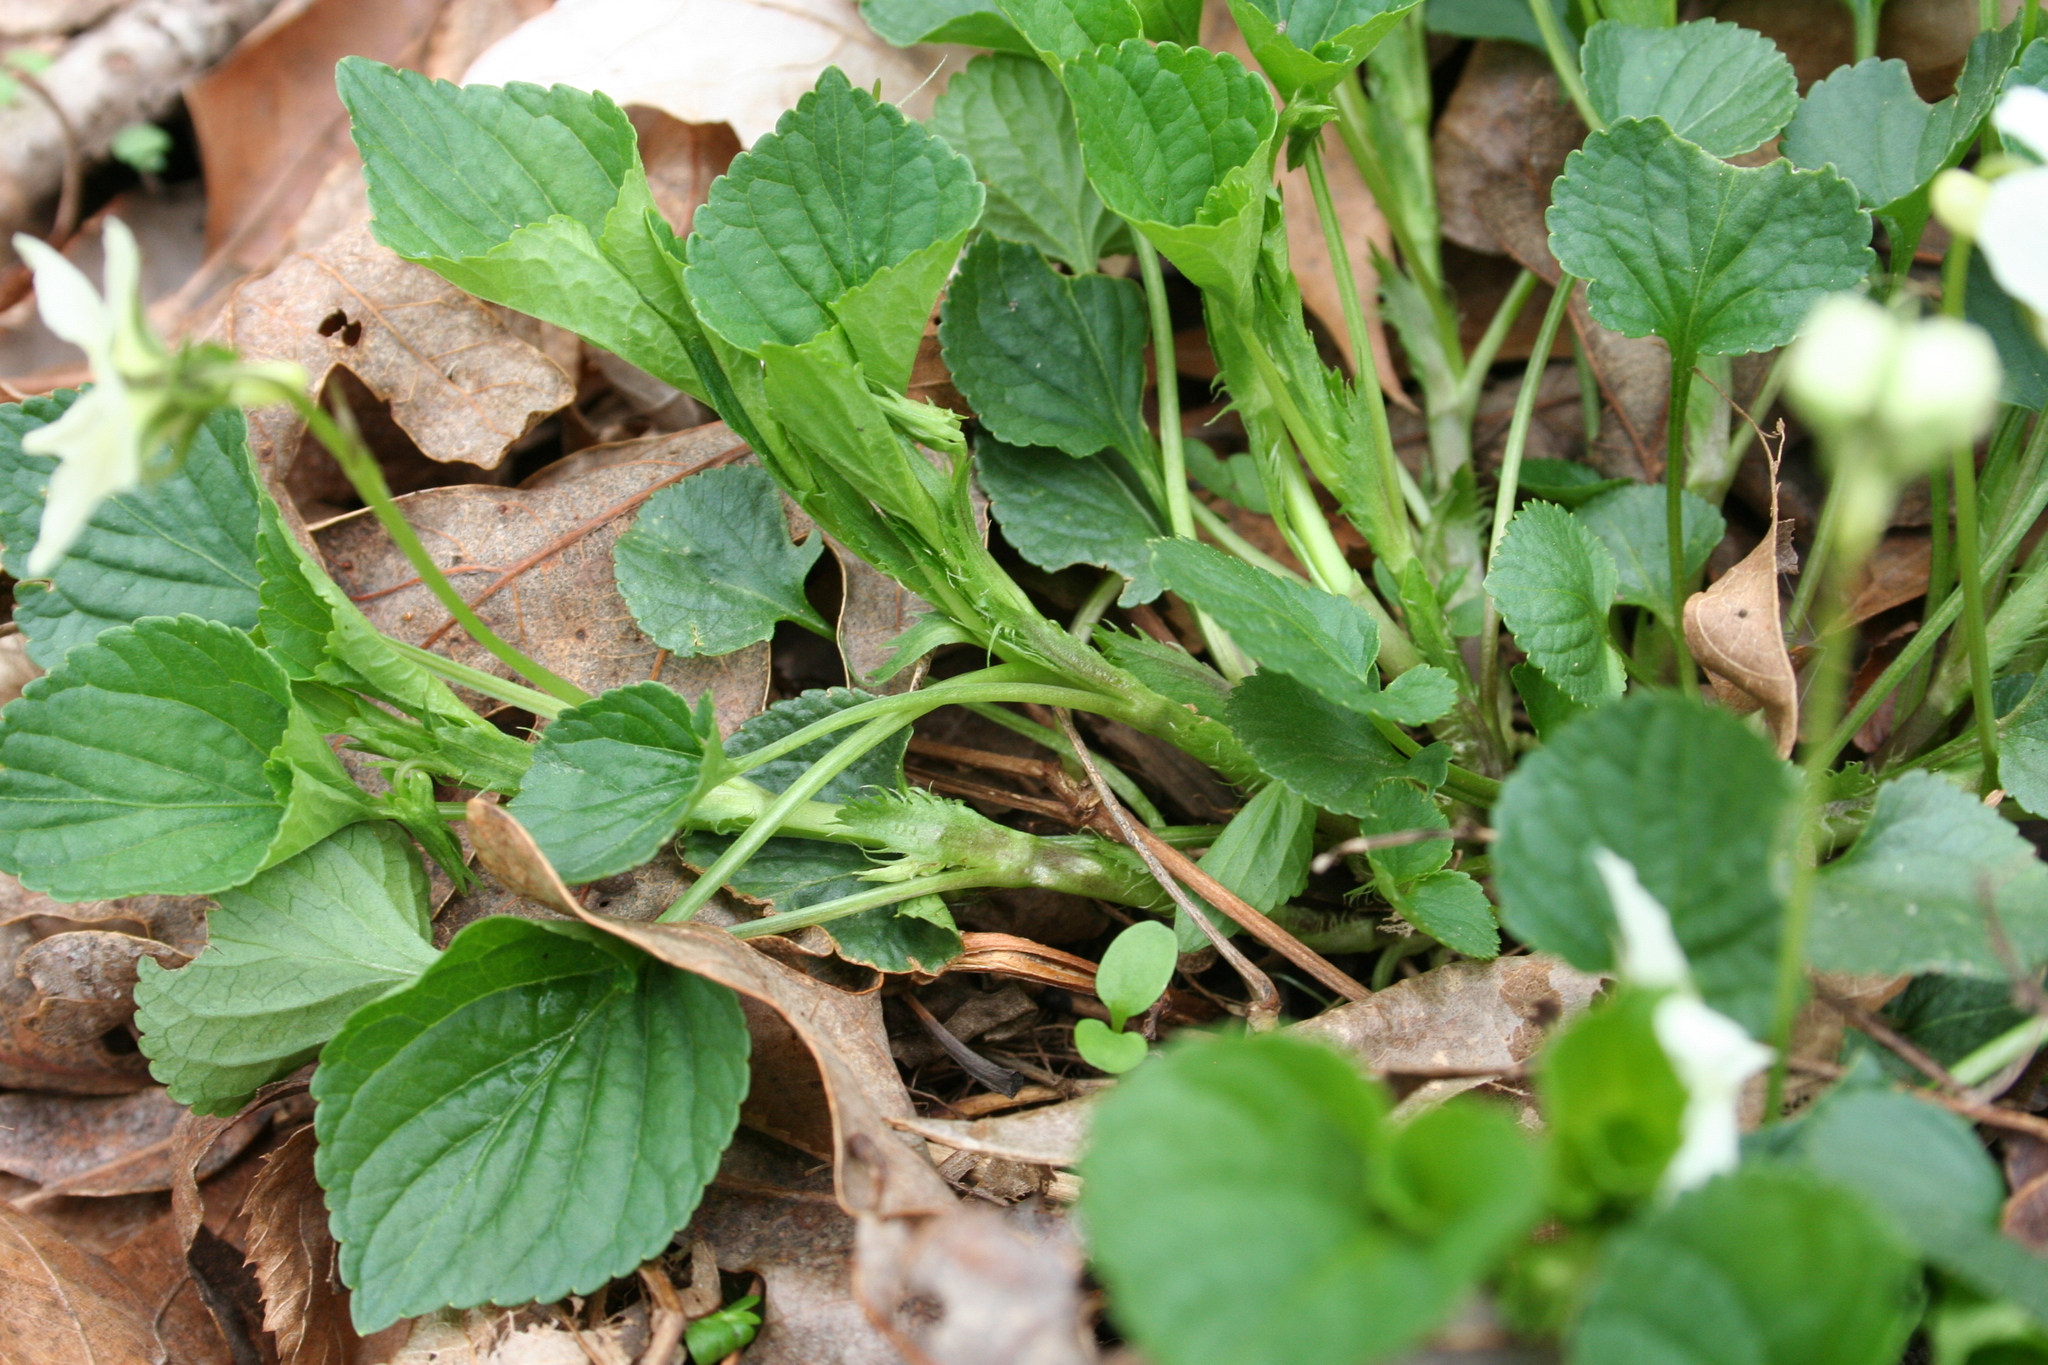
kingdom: Plantae
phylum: Tracheophyta
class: Magnoliopsida
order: Malpighiales
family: Violaceae
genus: Viola
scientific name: Viola striata
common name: Cream violet
